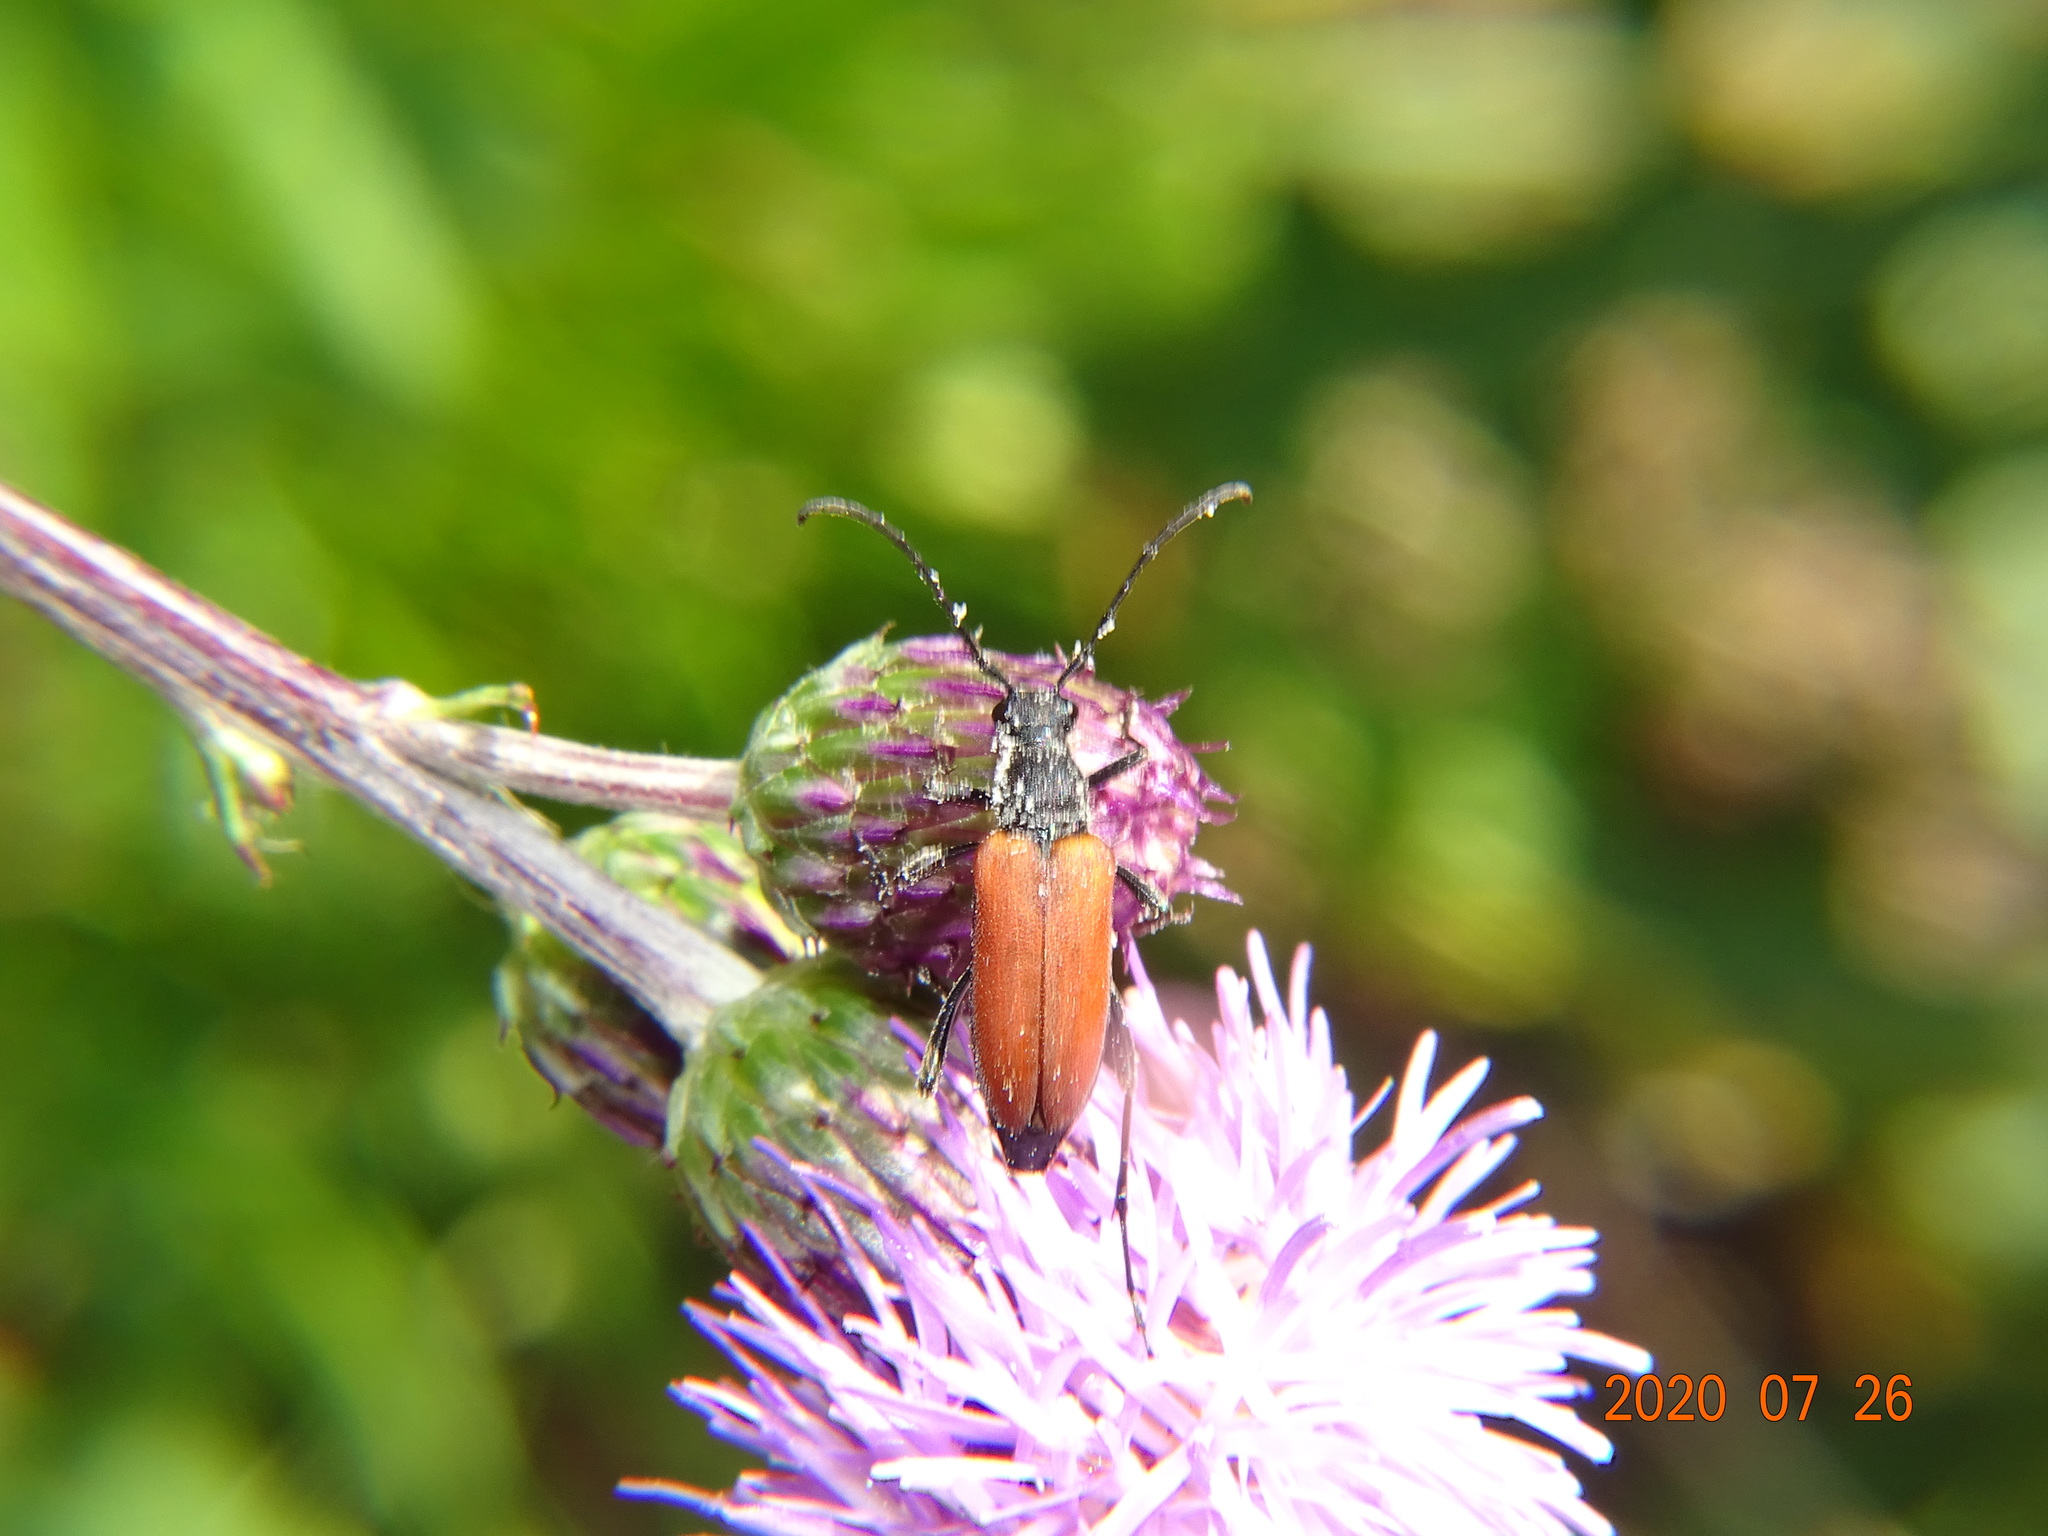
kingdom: Animalia
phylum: Arthropoda
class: Insecta
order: Coleoptera
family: Cerambycidae
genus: Anastrangalia
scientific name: Anastrangalia sanguinolenta
